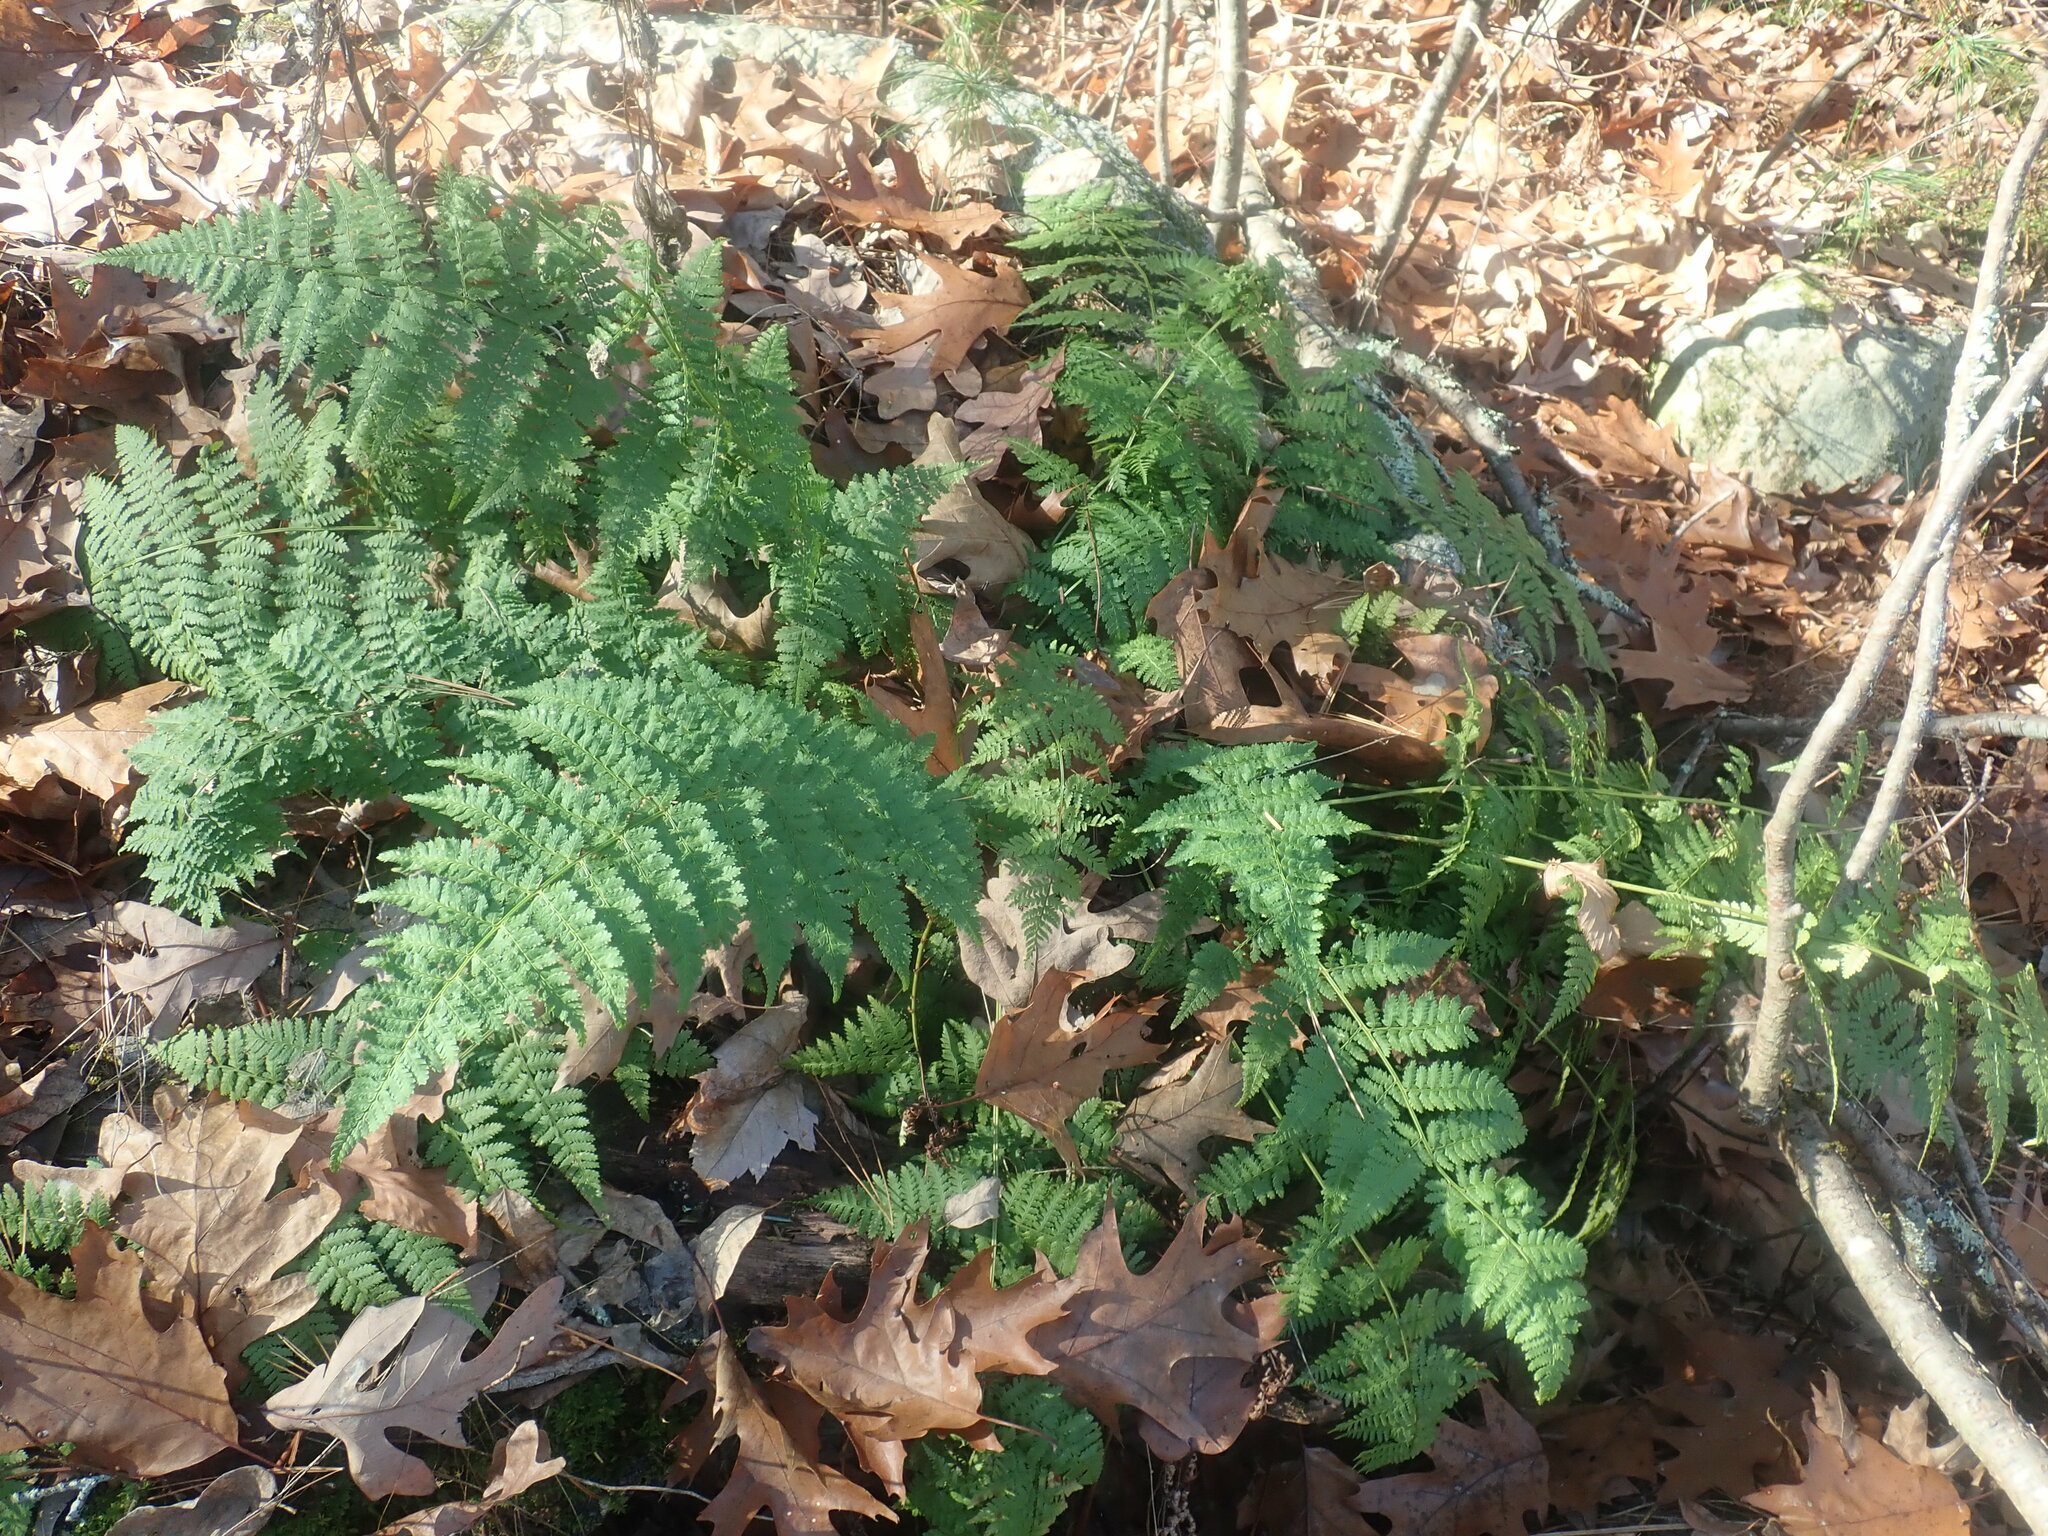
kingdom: Plantae
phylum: Tracheophyta
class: Polypodiopsida
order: Polypodiales
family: Dryopteridaceae
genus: Dryopteris
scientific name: Dryopteris intermedia
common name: Evergreen wood fern
